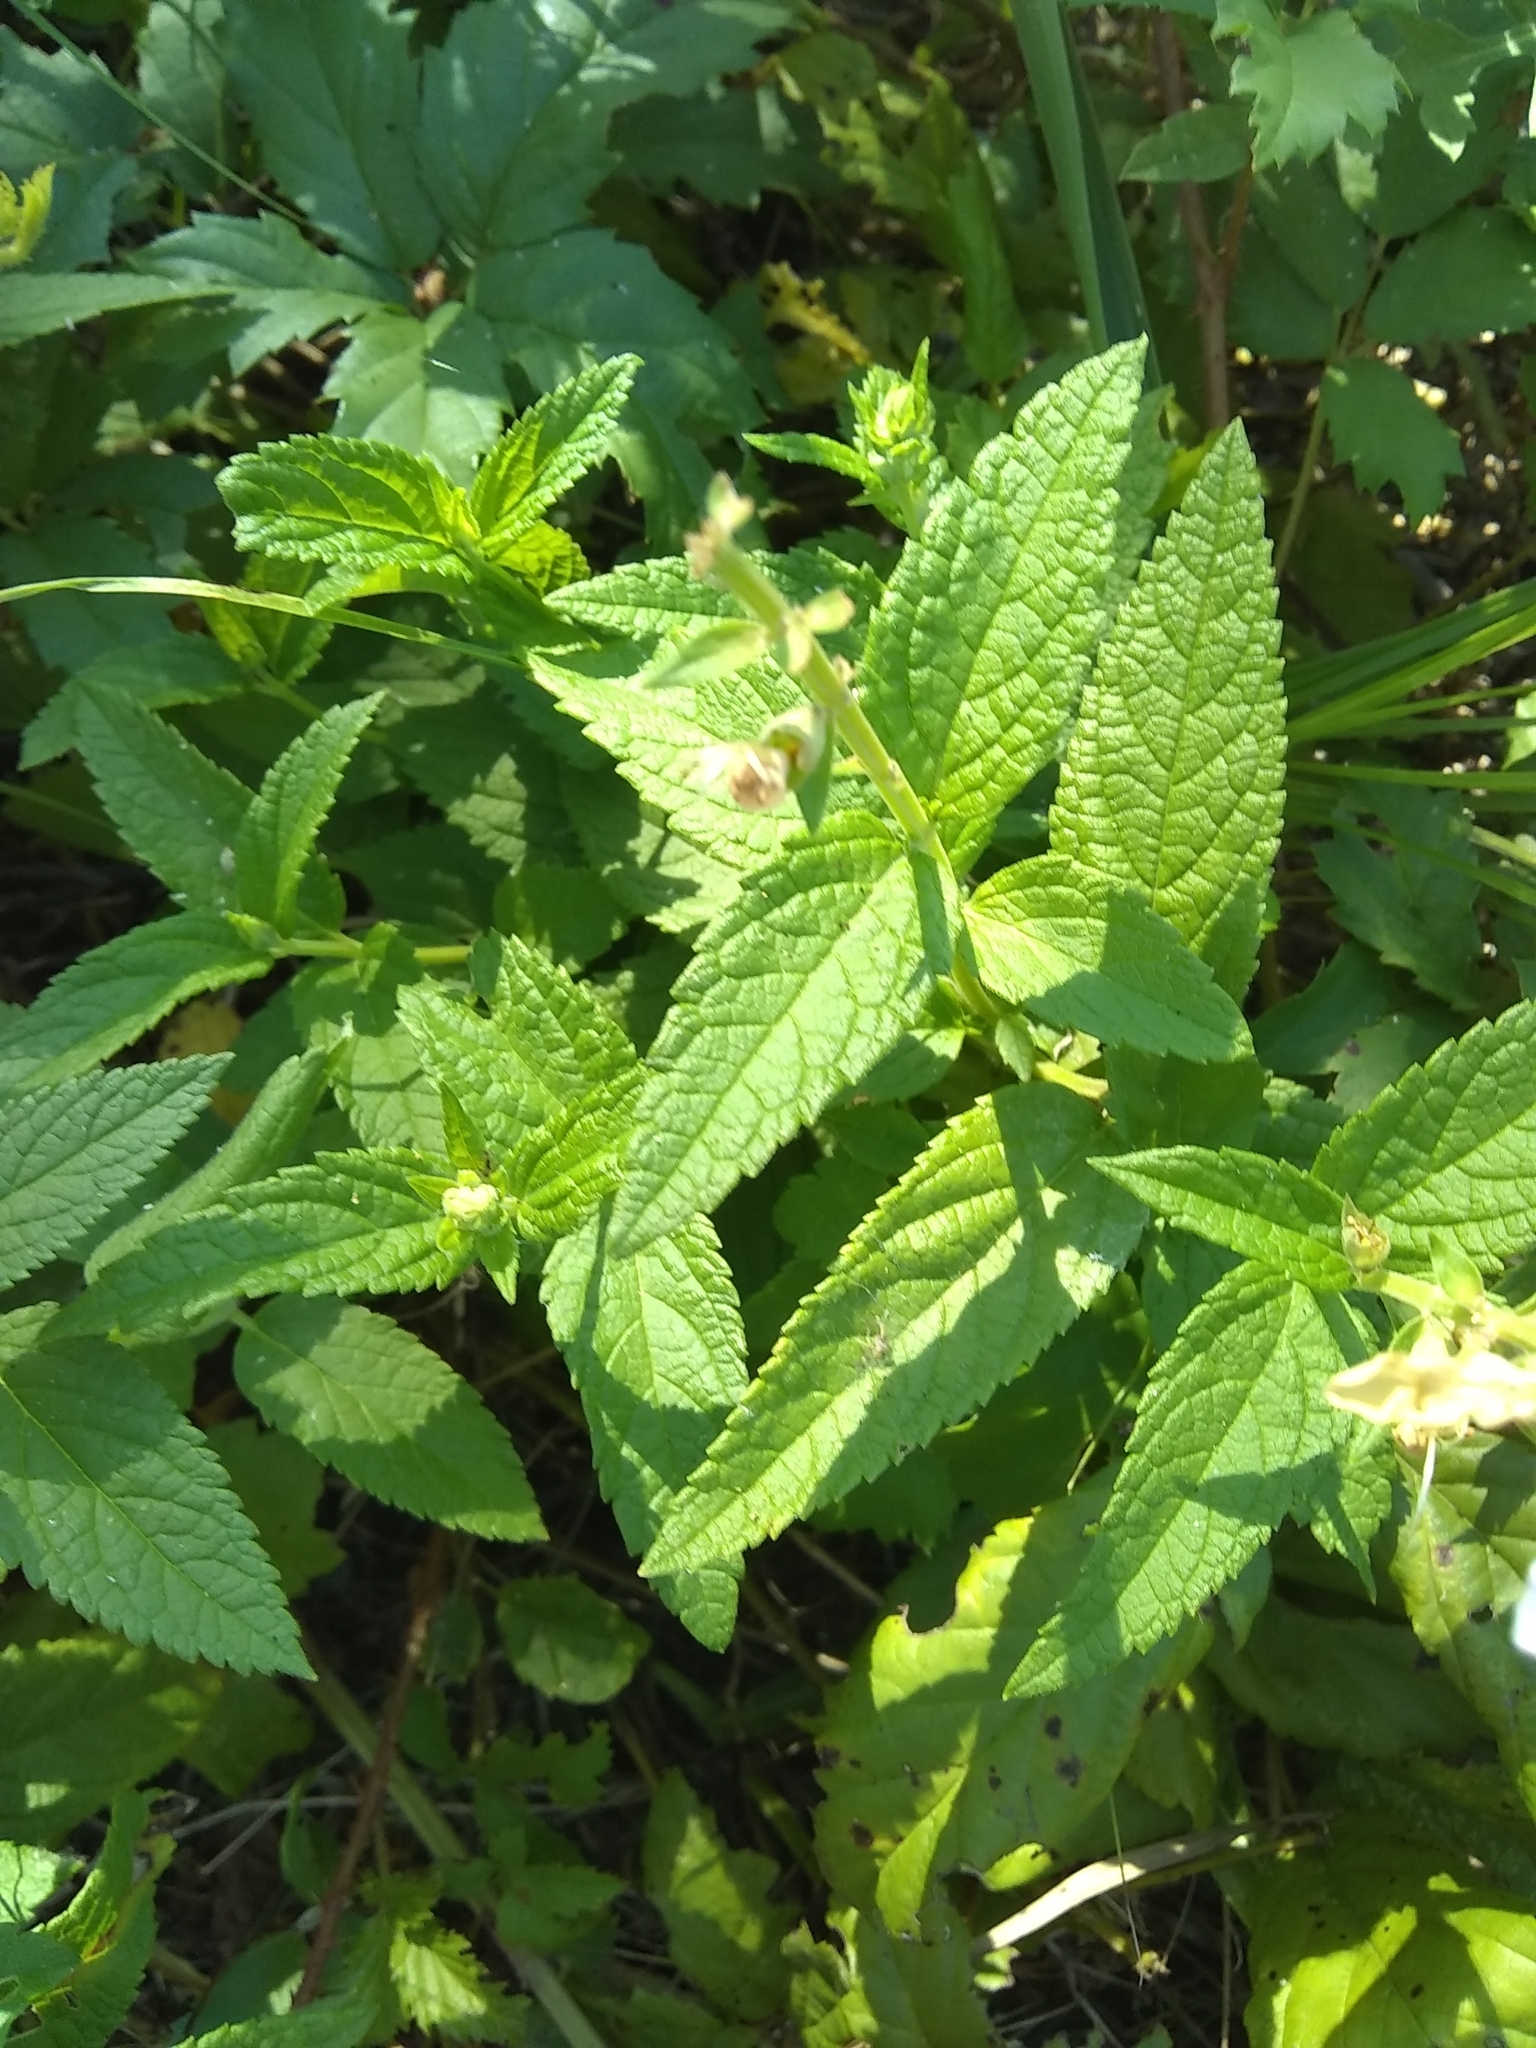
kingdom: Plantae
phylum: Tracheophyta
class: Magnoliopsida
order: Lamiales
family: Lamiaceae
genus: Teucrium
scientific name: Teucrium canadense
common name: American germander
